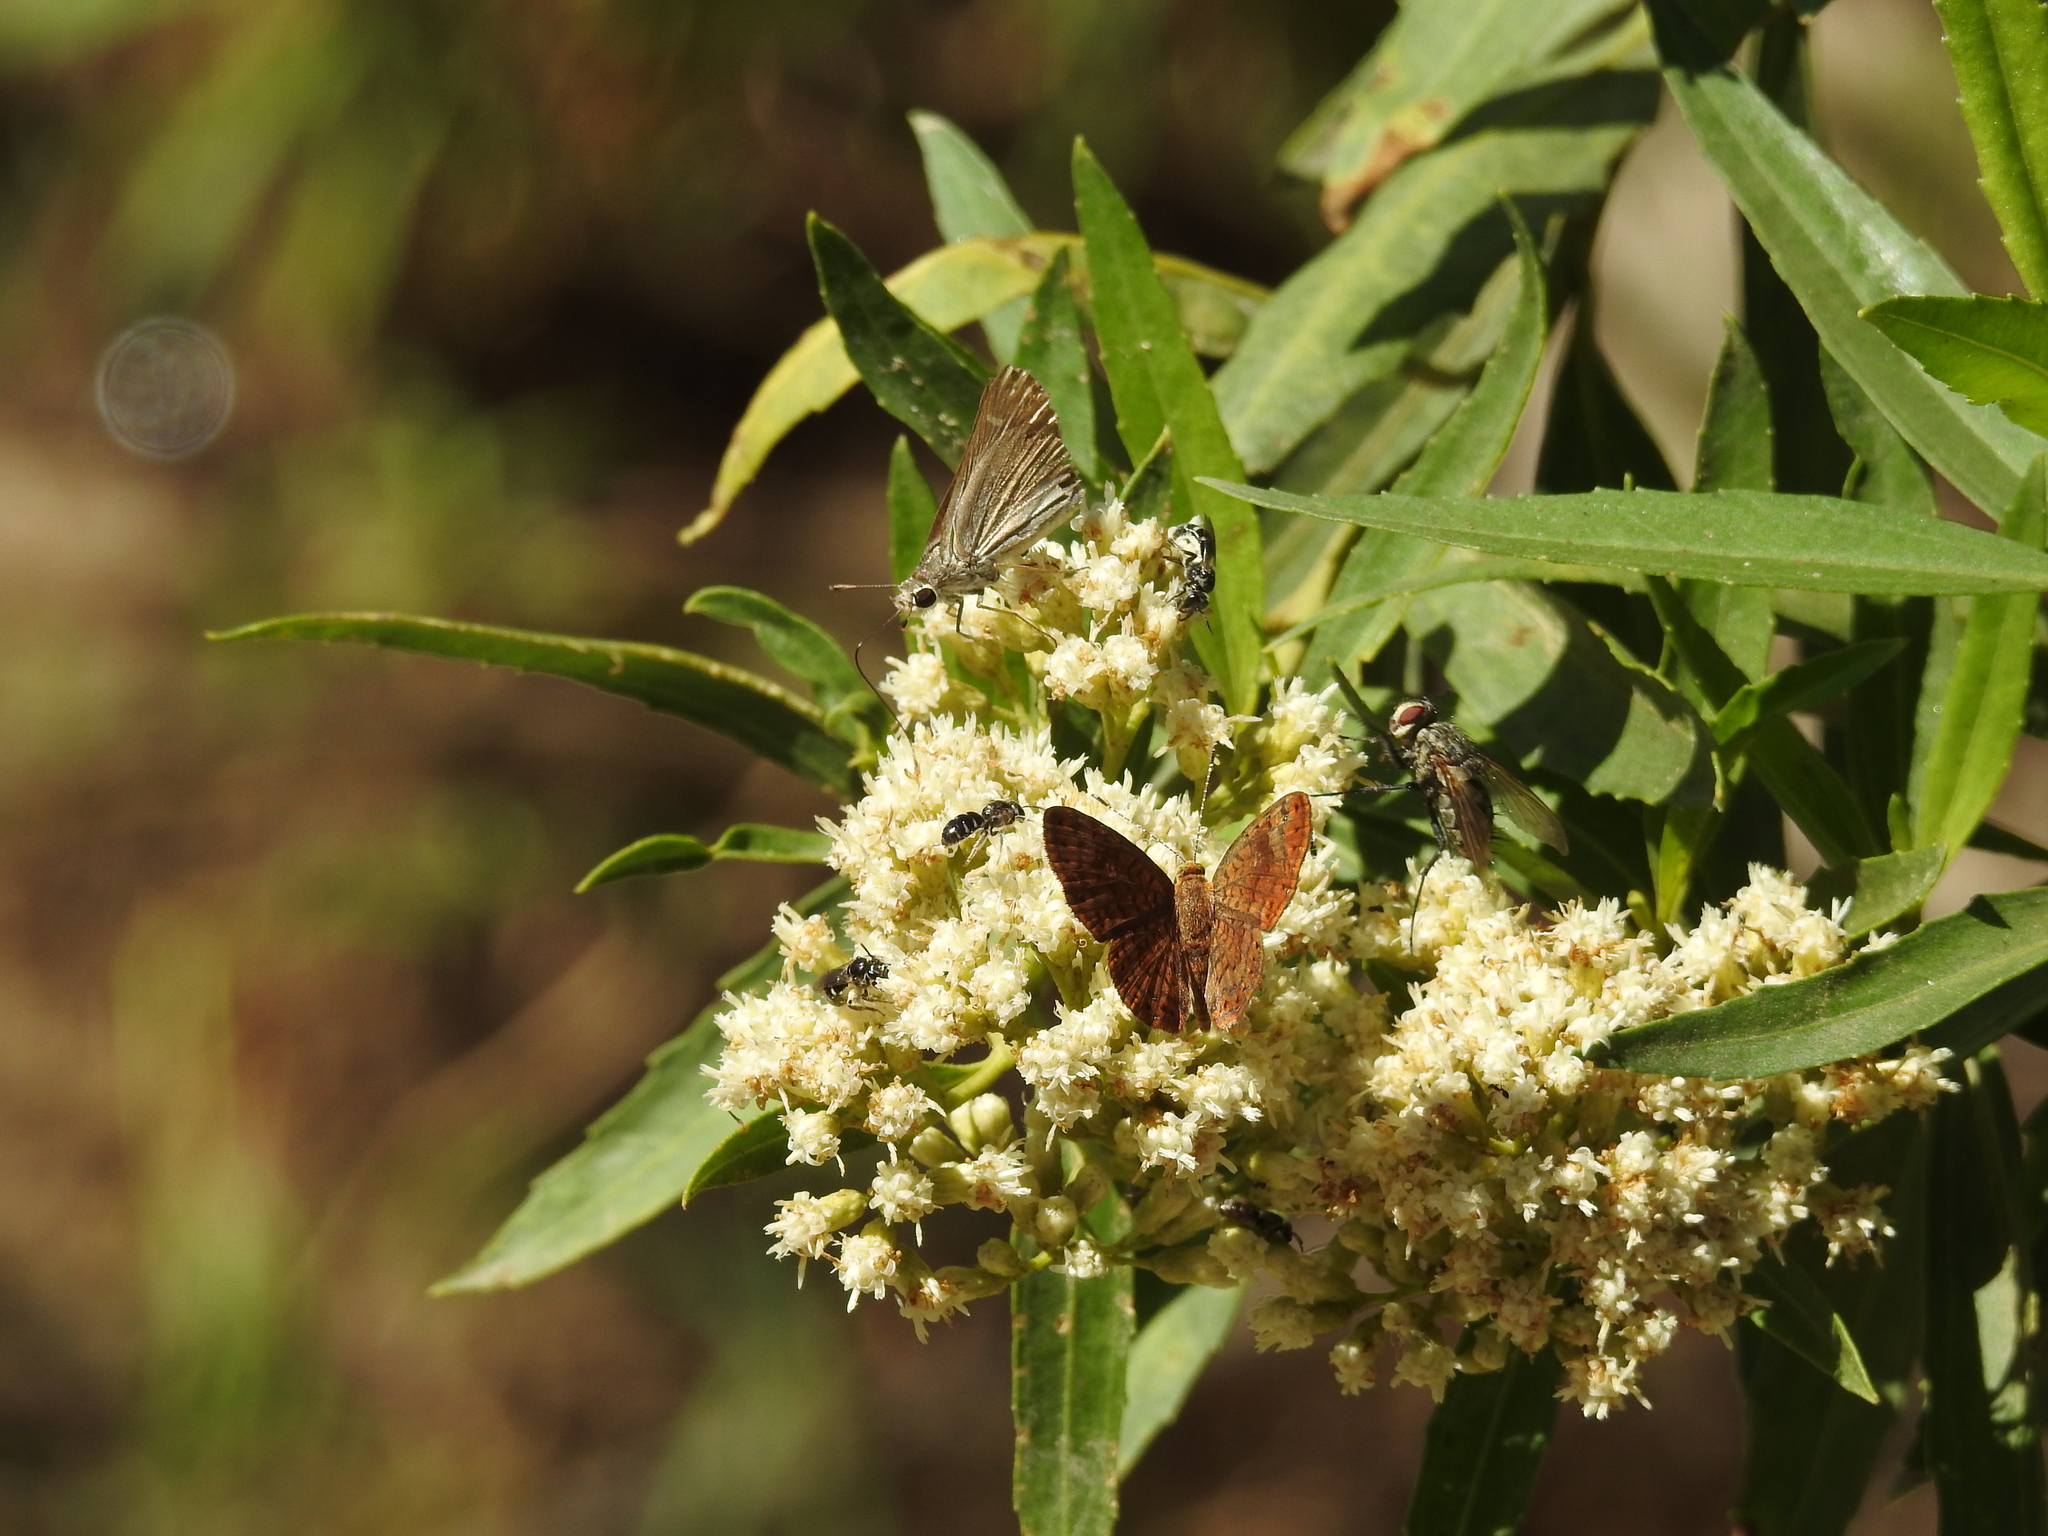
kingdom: Animalia
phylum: Arthropoda
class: Insecta
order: Hymenoptera
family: Halictidae
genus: Lasioglossum
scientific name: Lasioglossum
